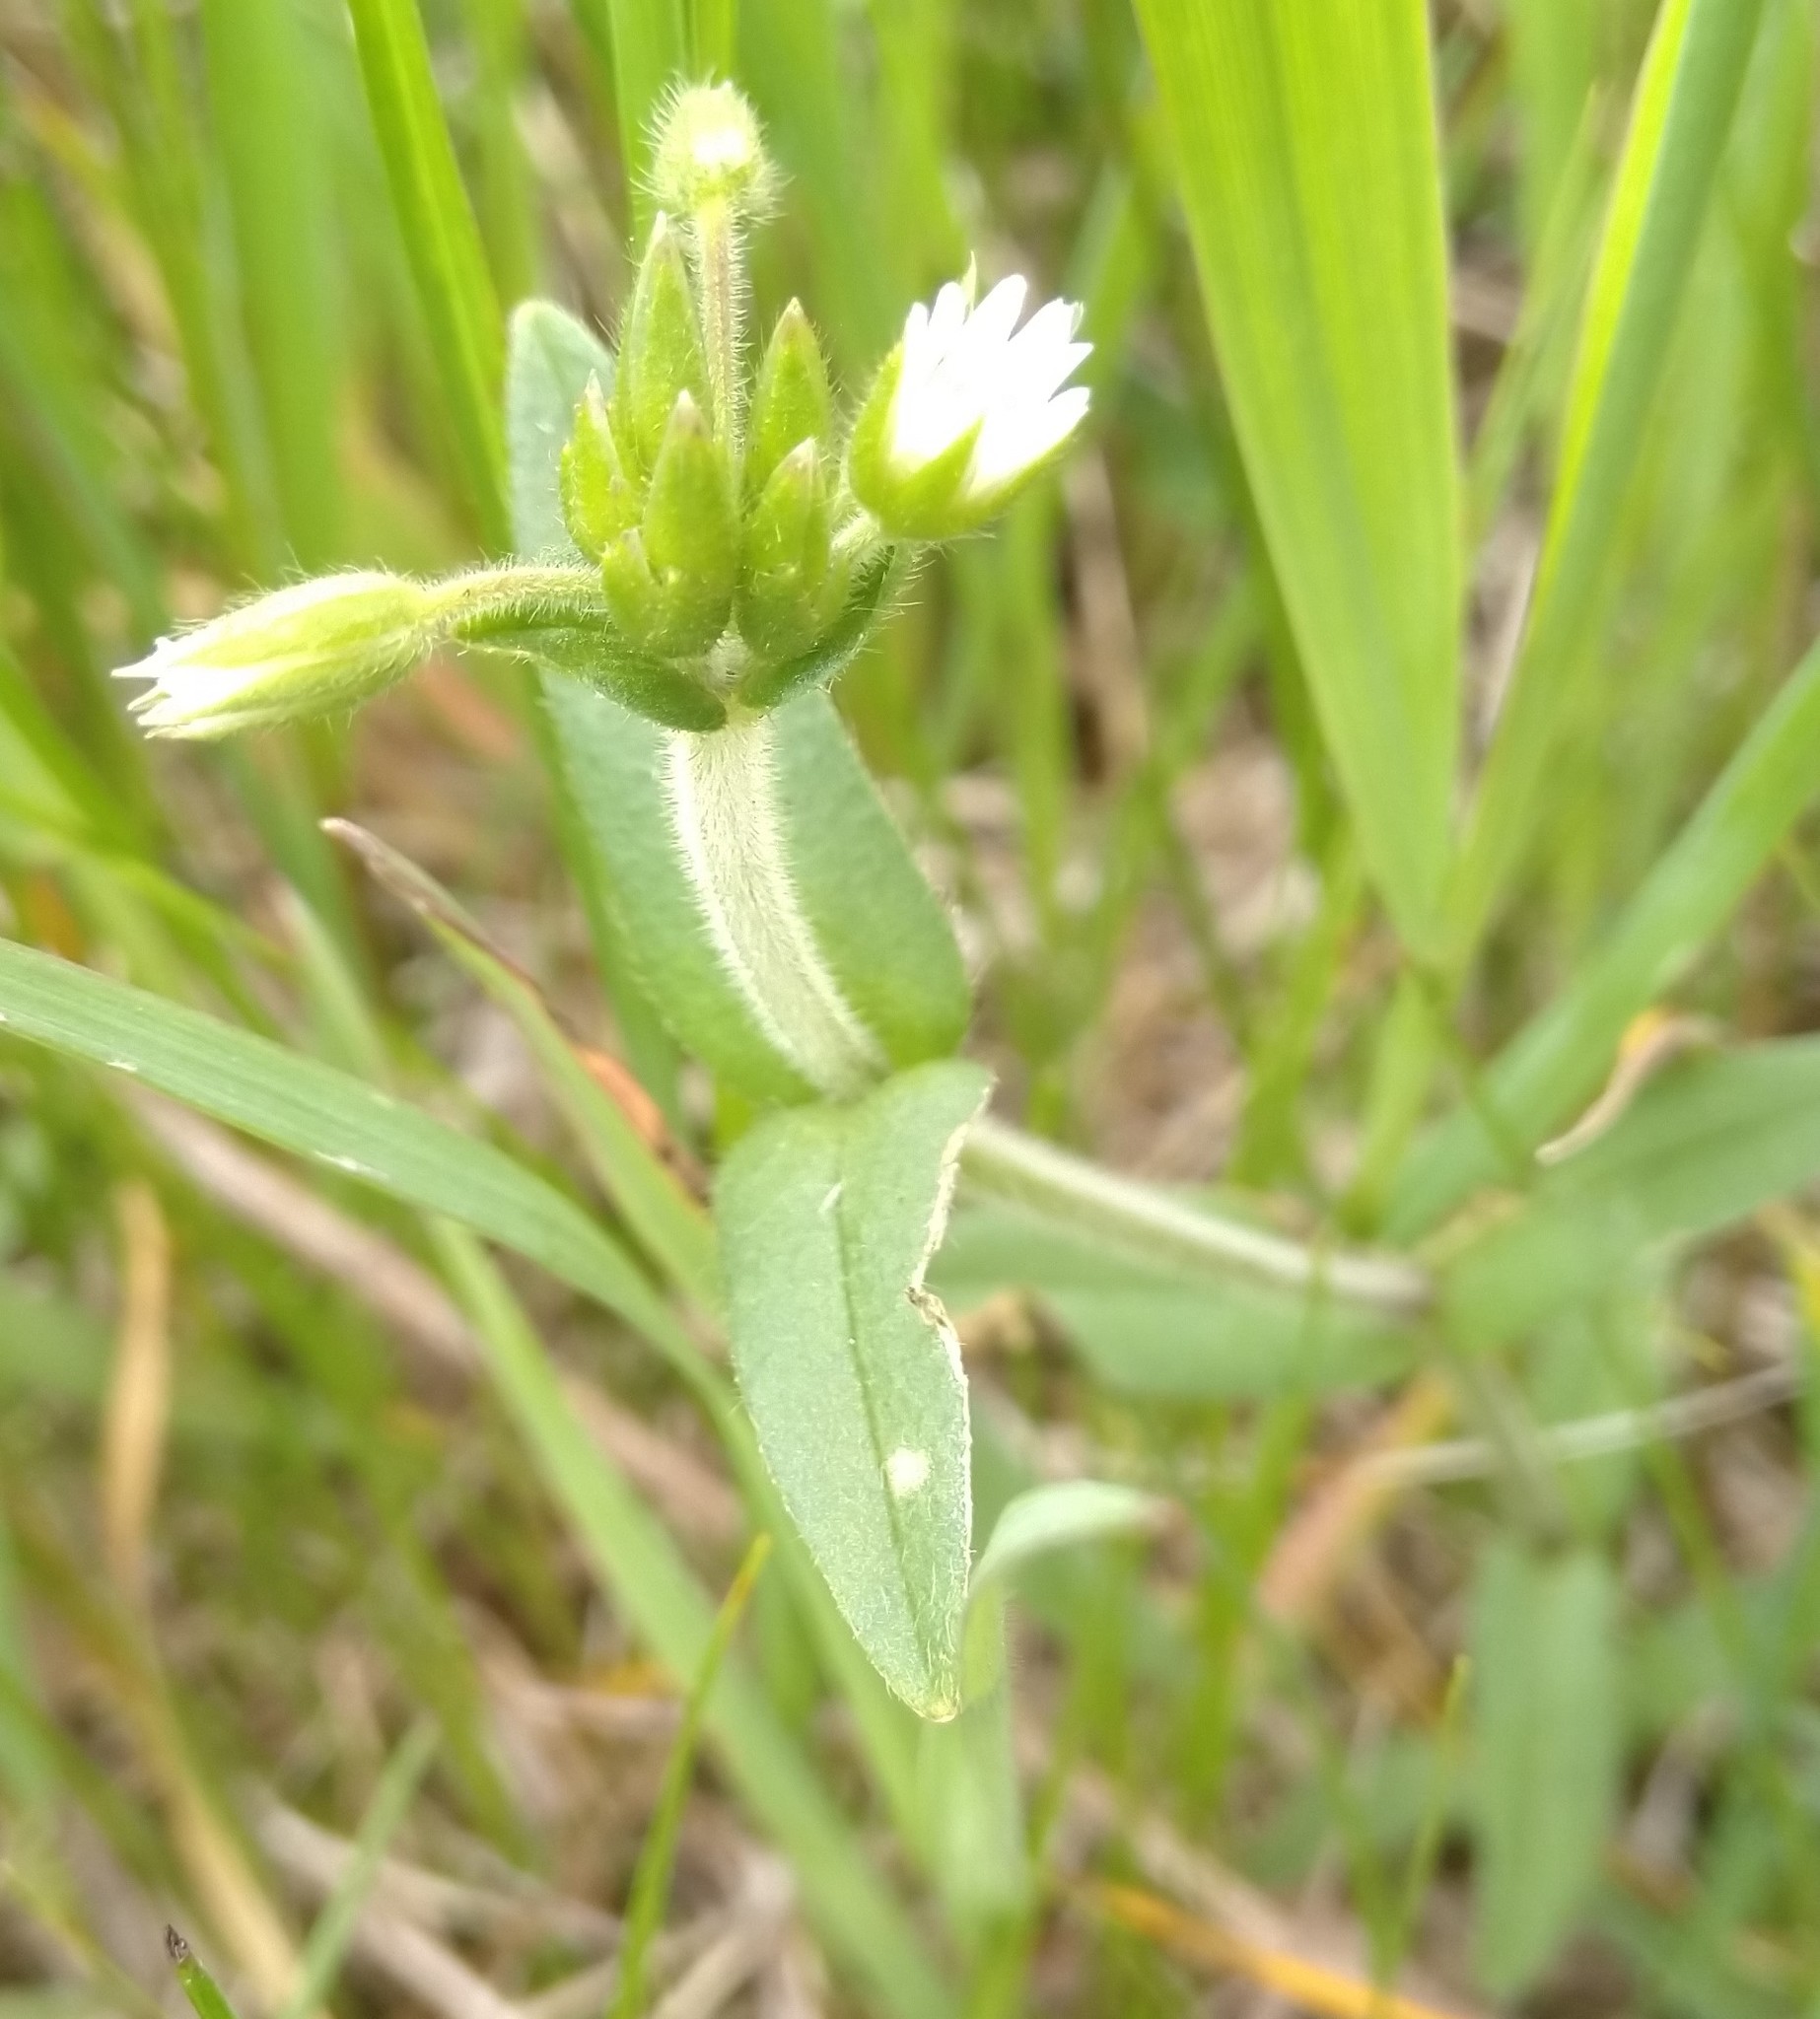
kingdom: Plantae
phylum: Tracheophyta
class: Magnoliopsida
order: Caryophyllales
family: Caryophyllaceae
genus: Cerastium
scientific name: Cerastium fontanum
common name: Common mouse-ear
